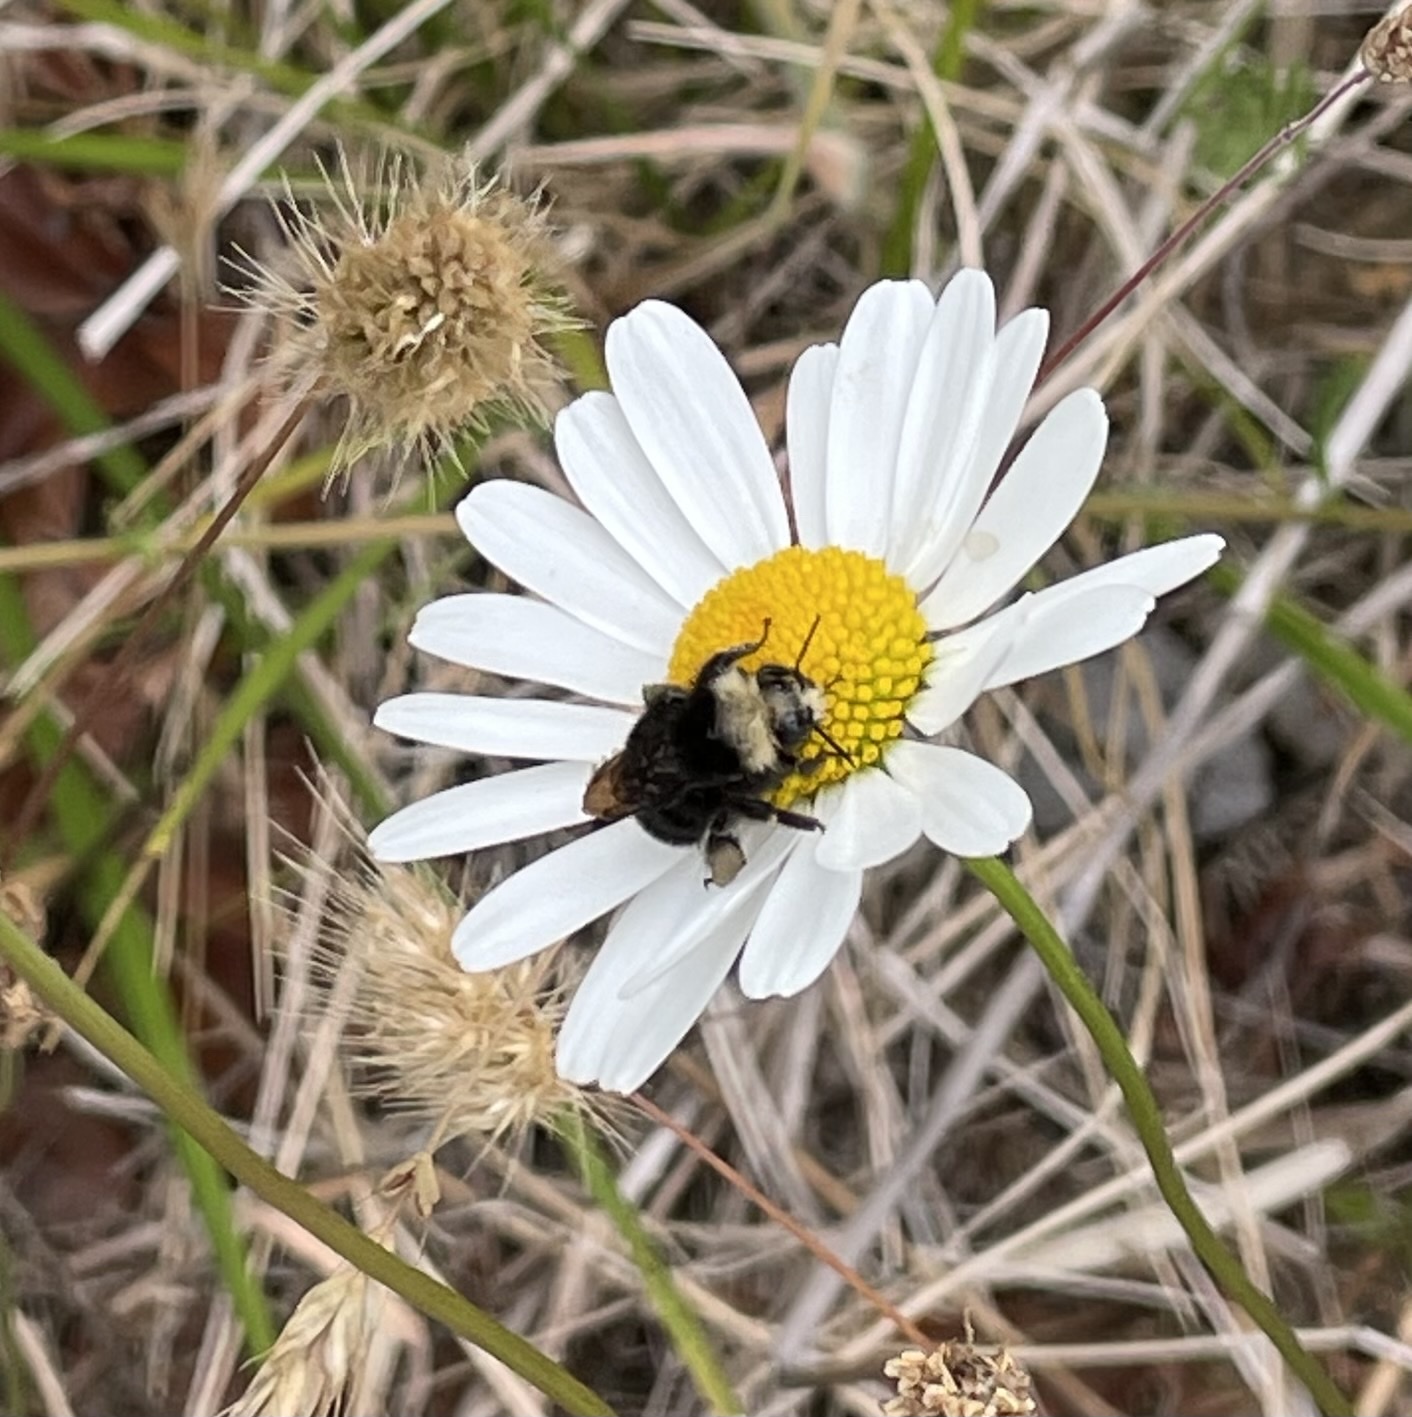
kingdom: Animalia
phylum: Arthropoda
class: Insecta
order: Hymenoptera
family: Apidae
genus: Bombus
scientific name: Bombus vosnesenskii
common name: Vosnesensky bumble bee
